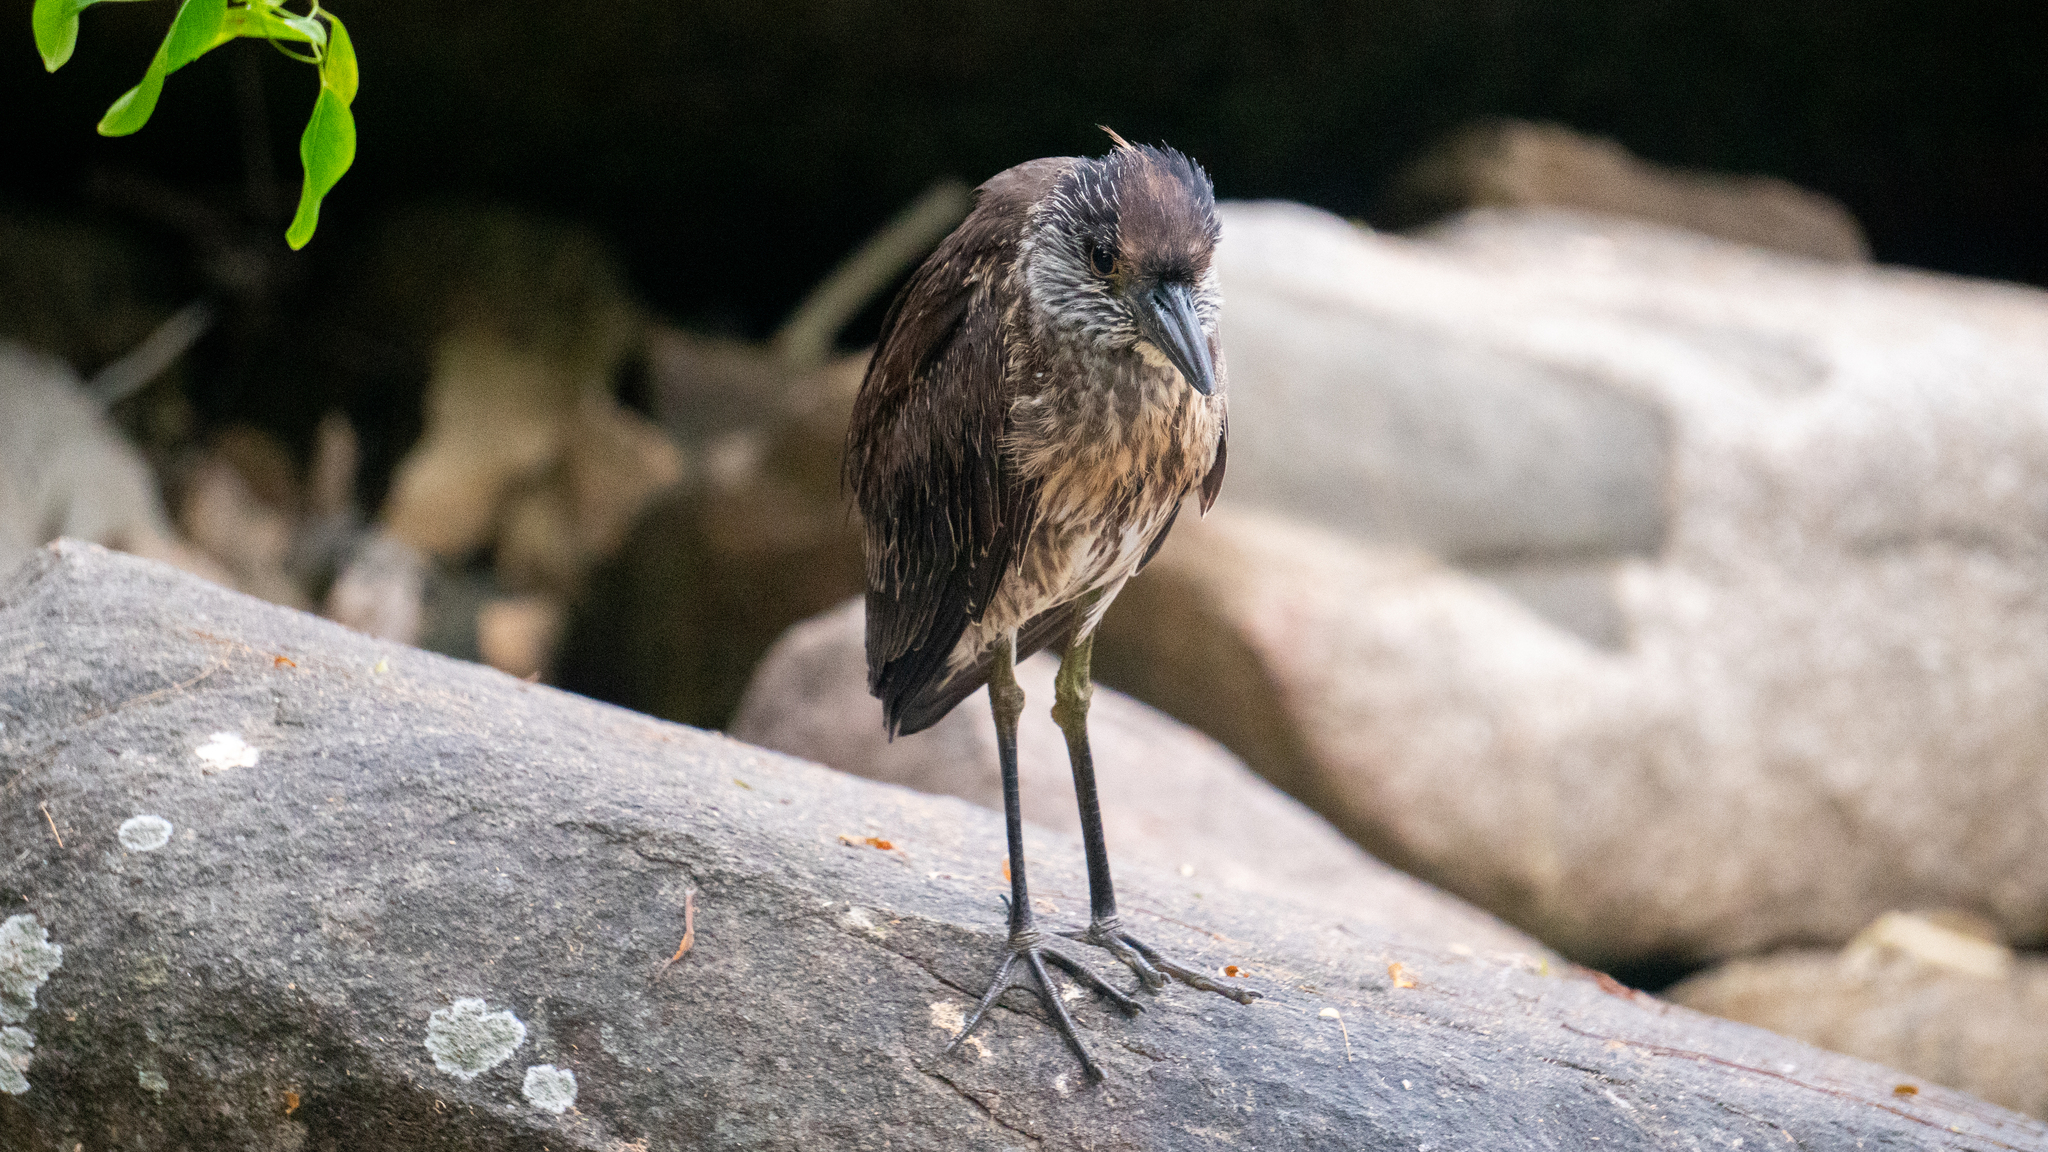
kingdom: Animalia
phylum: Chordata
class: Aves
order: Pelecaniformes
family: Ardeidae
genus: Nyctanassa
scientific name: Nyctanassa violacea
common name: Yellow-crowned night heron
